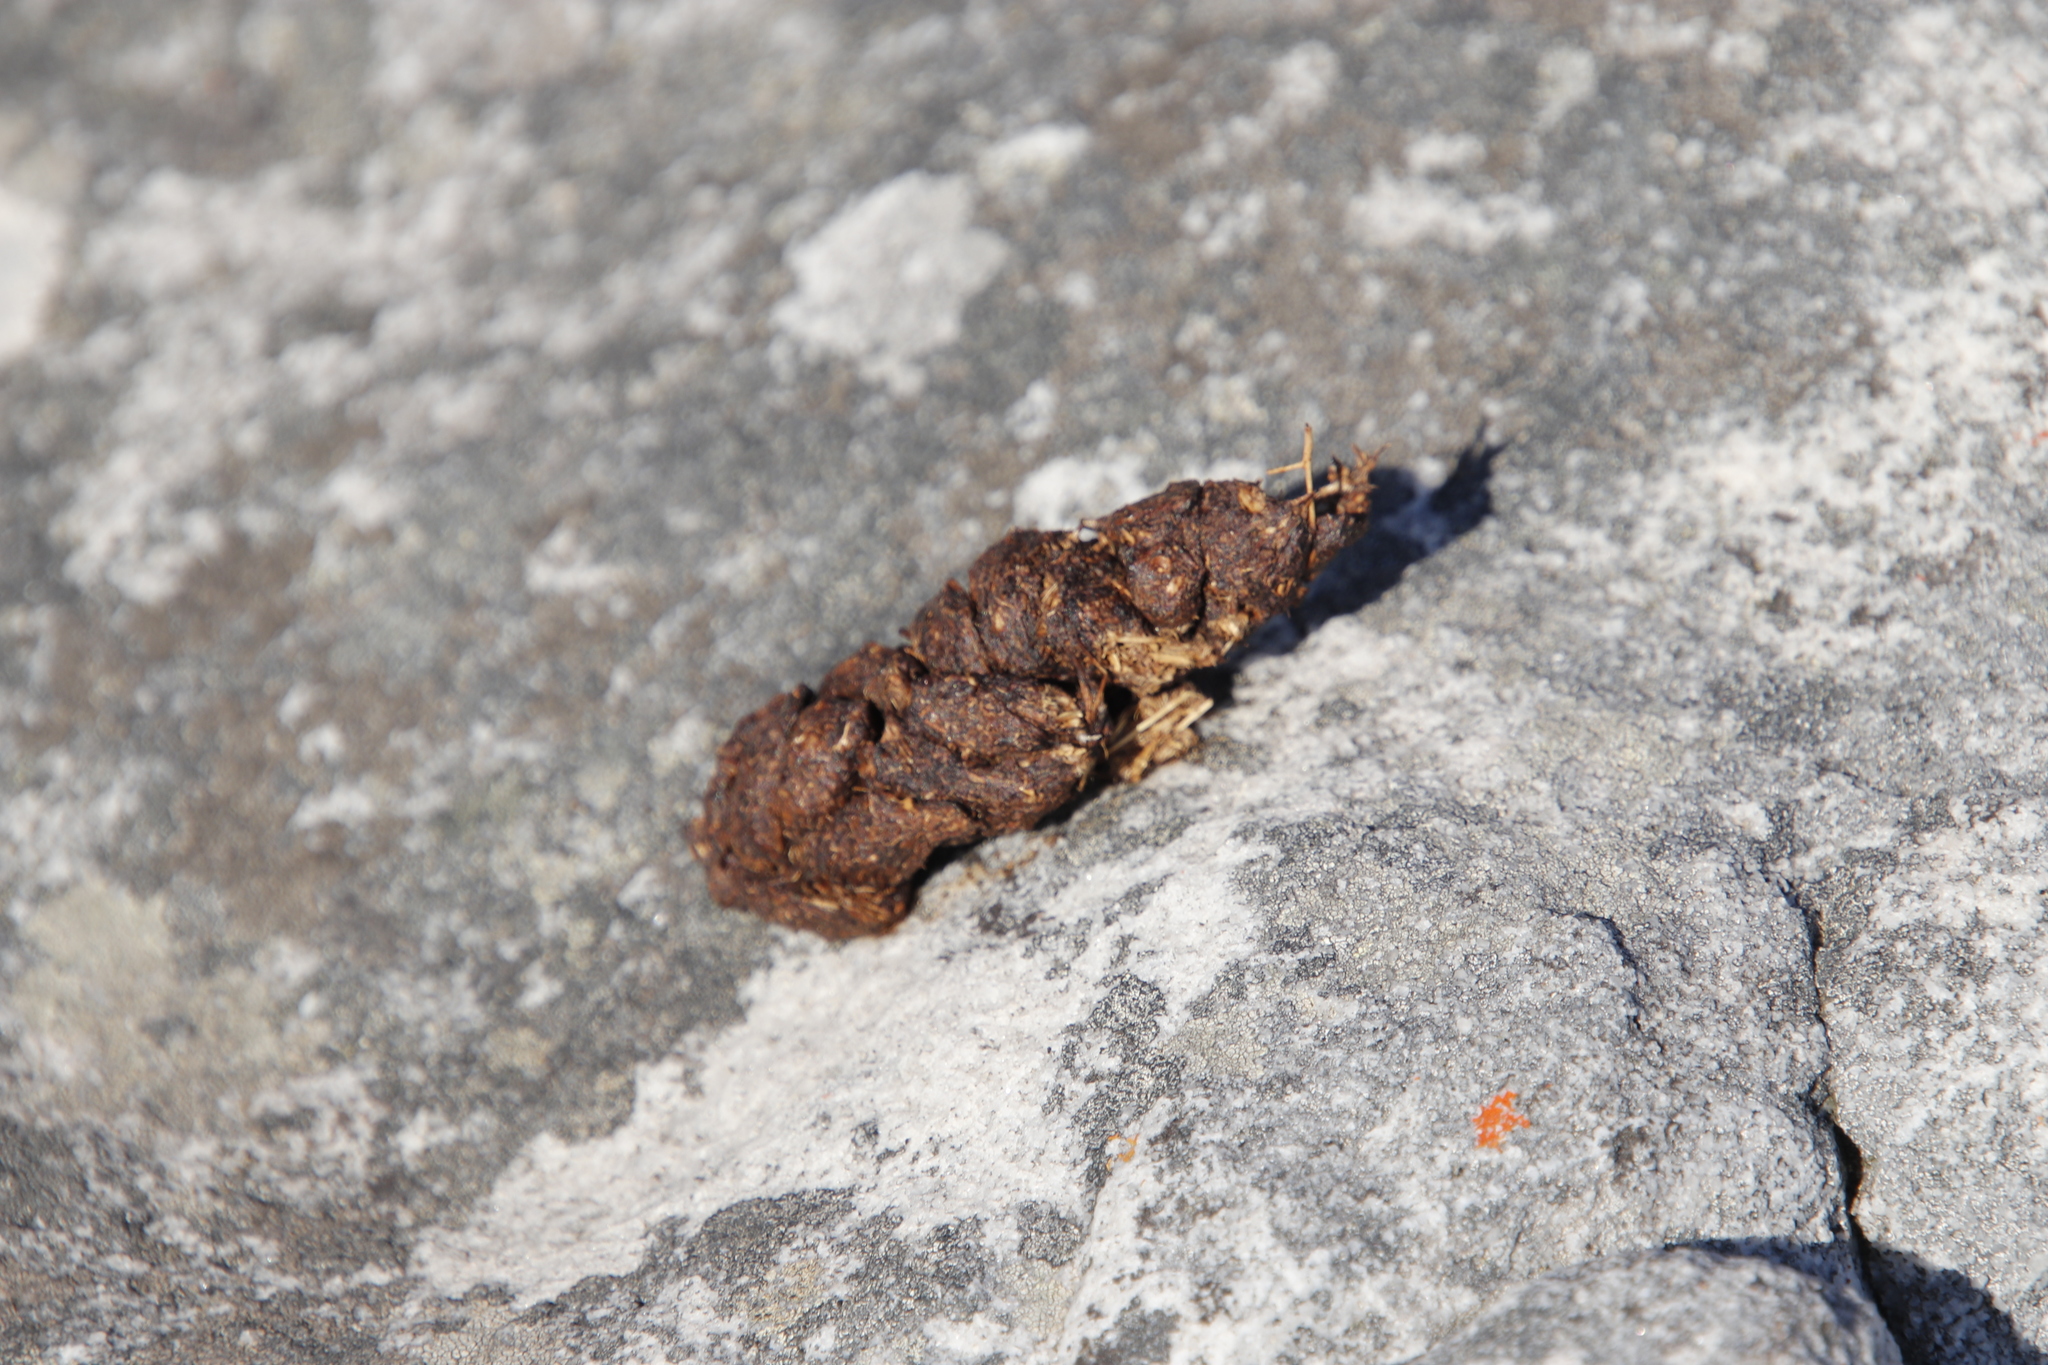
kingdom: Animalia
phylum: Chordata
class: Mammalia
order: Primates
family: Cercopithecidae
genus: Papio
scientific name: Papio ursinus
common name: Chacma baboon
